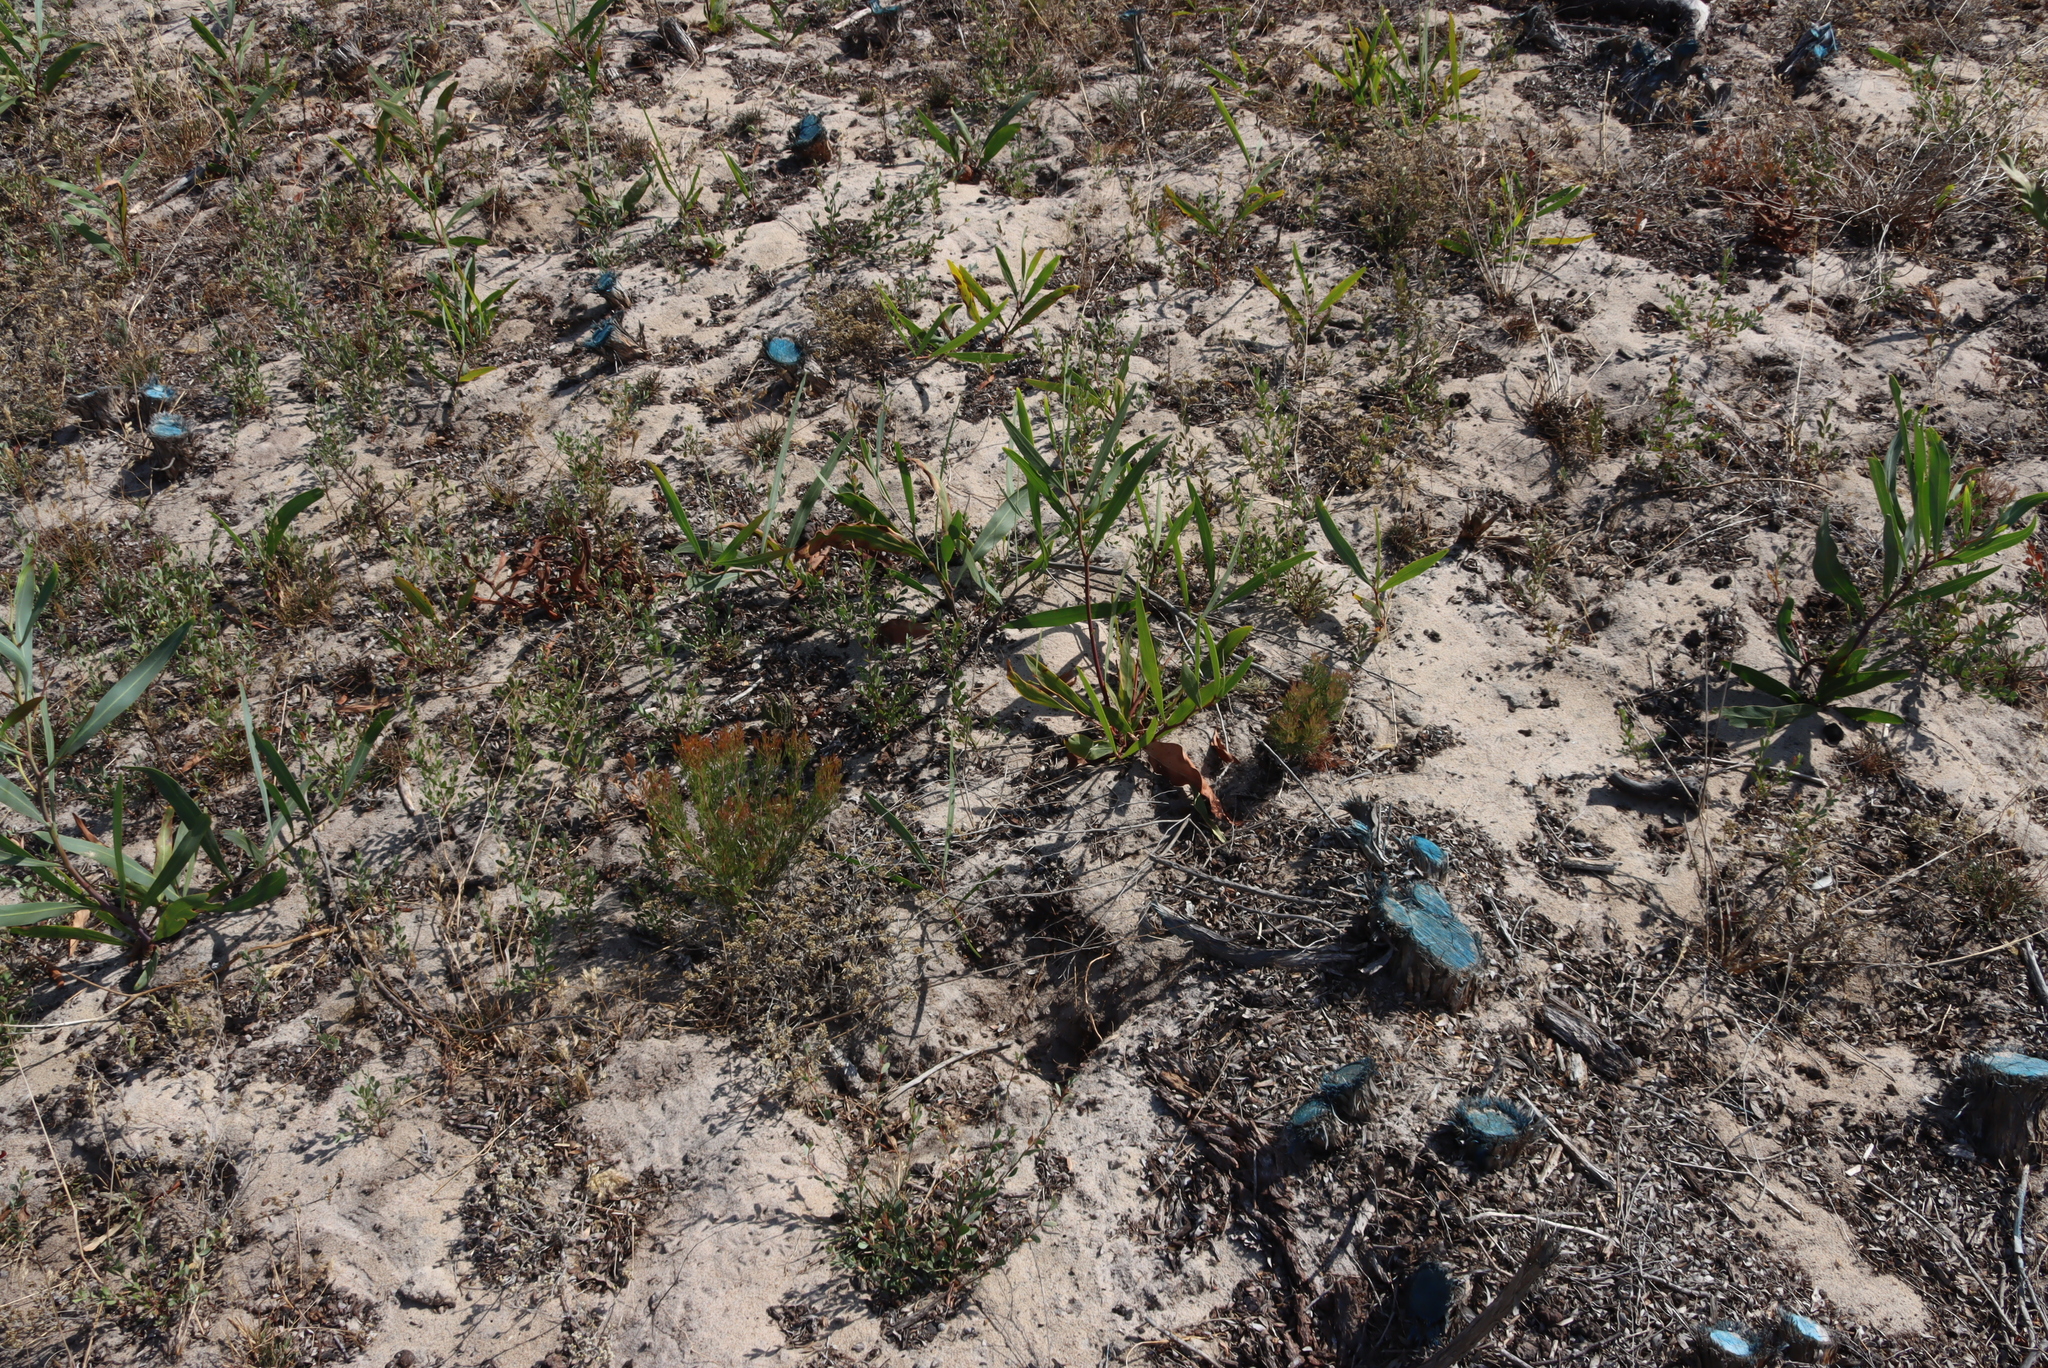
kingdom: Plantae
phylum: Tracheophyta
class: Magnoliopsida
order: Fabales
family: Fabaceae
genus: Acacia
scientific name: Acacia saligna
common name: Orange wattle
